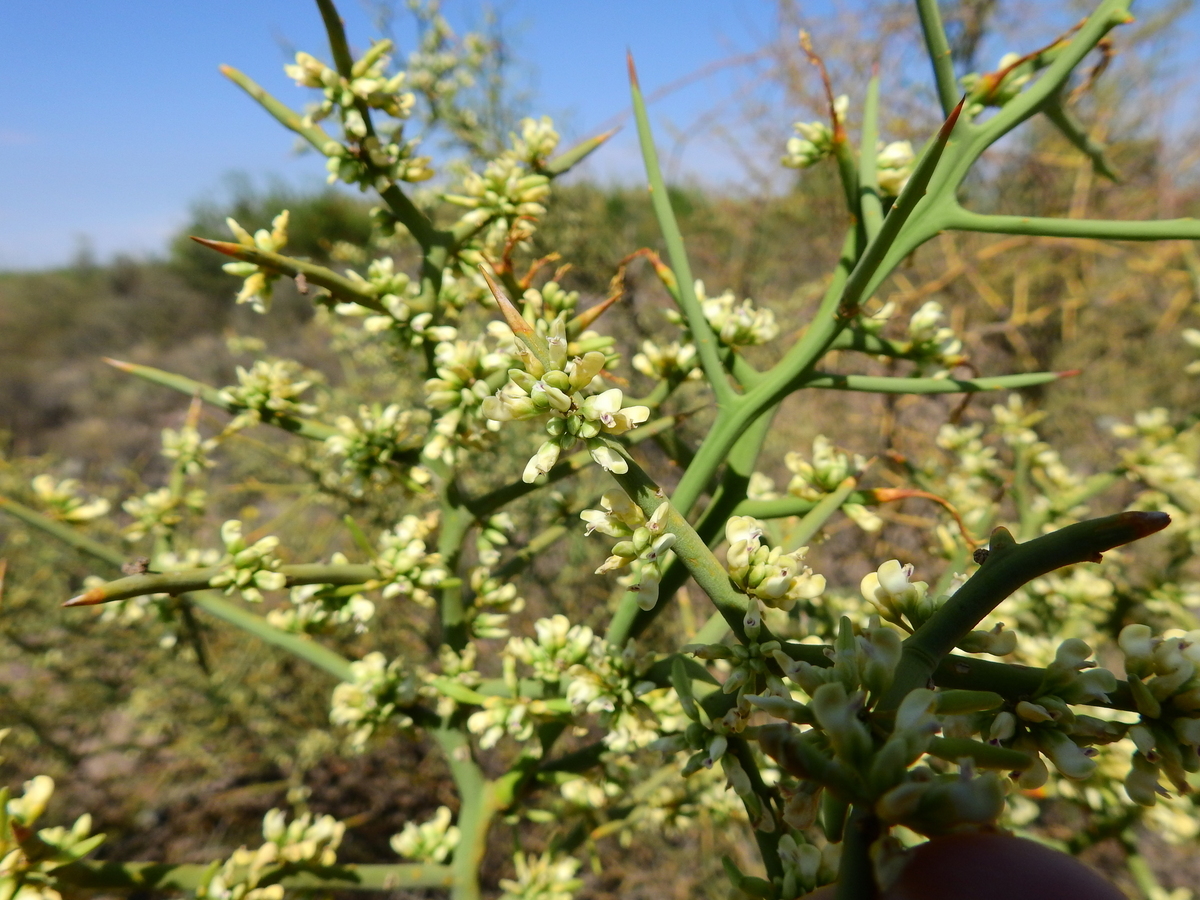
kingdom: Plantae
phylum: Tracheophyta
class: Magnoliopsida
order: Fabales
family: Polygalaceae
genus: Bredemeyera
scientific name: Bredemeyera colletioides
